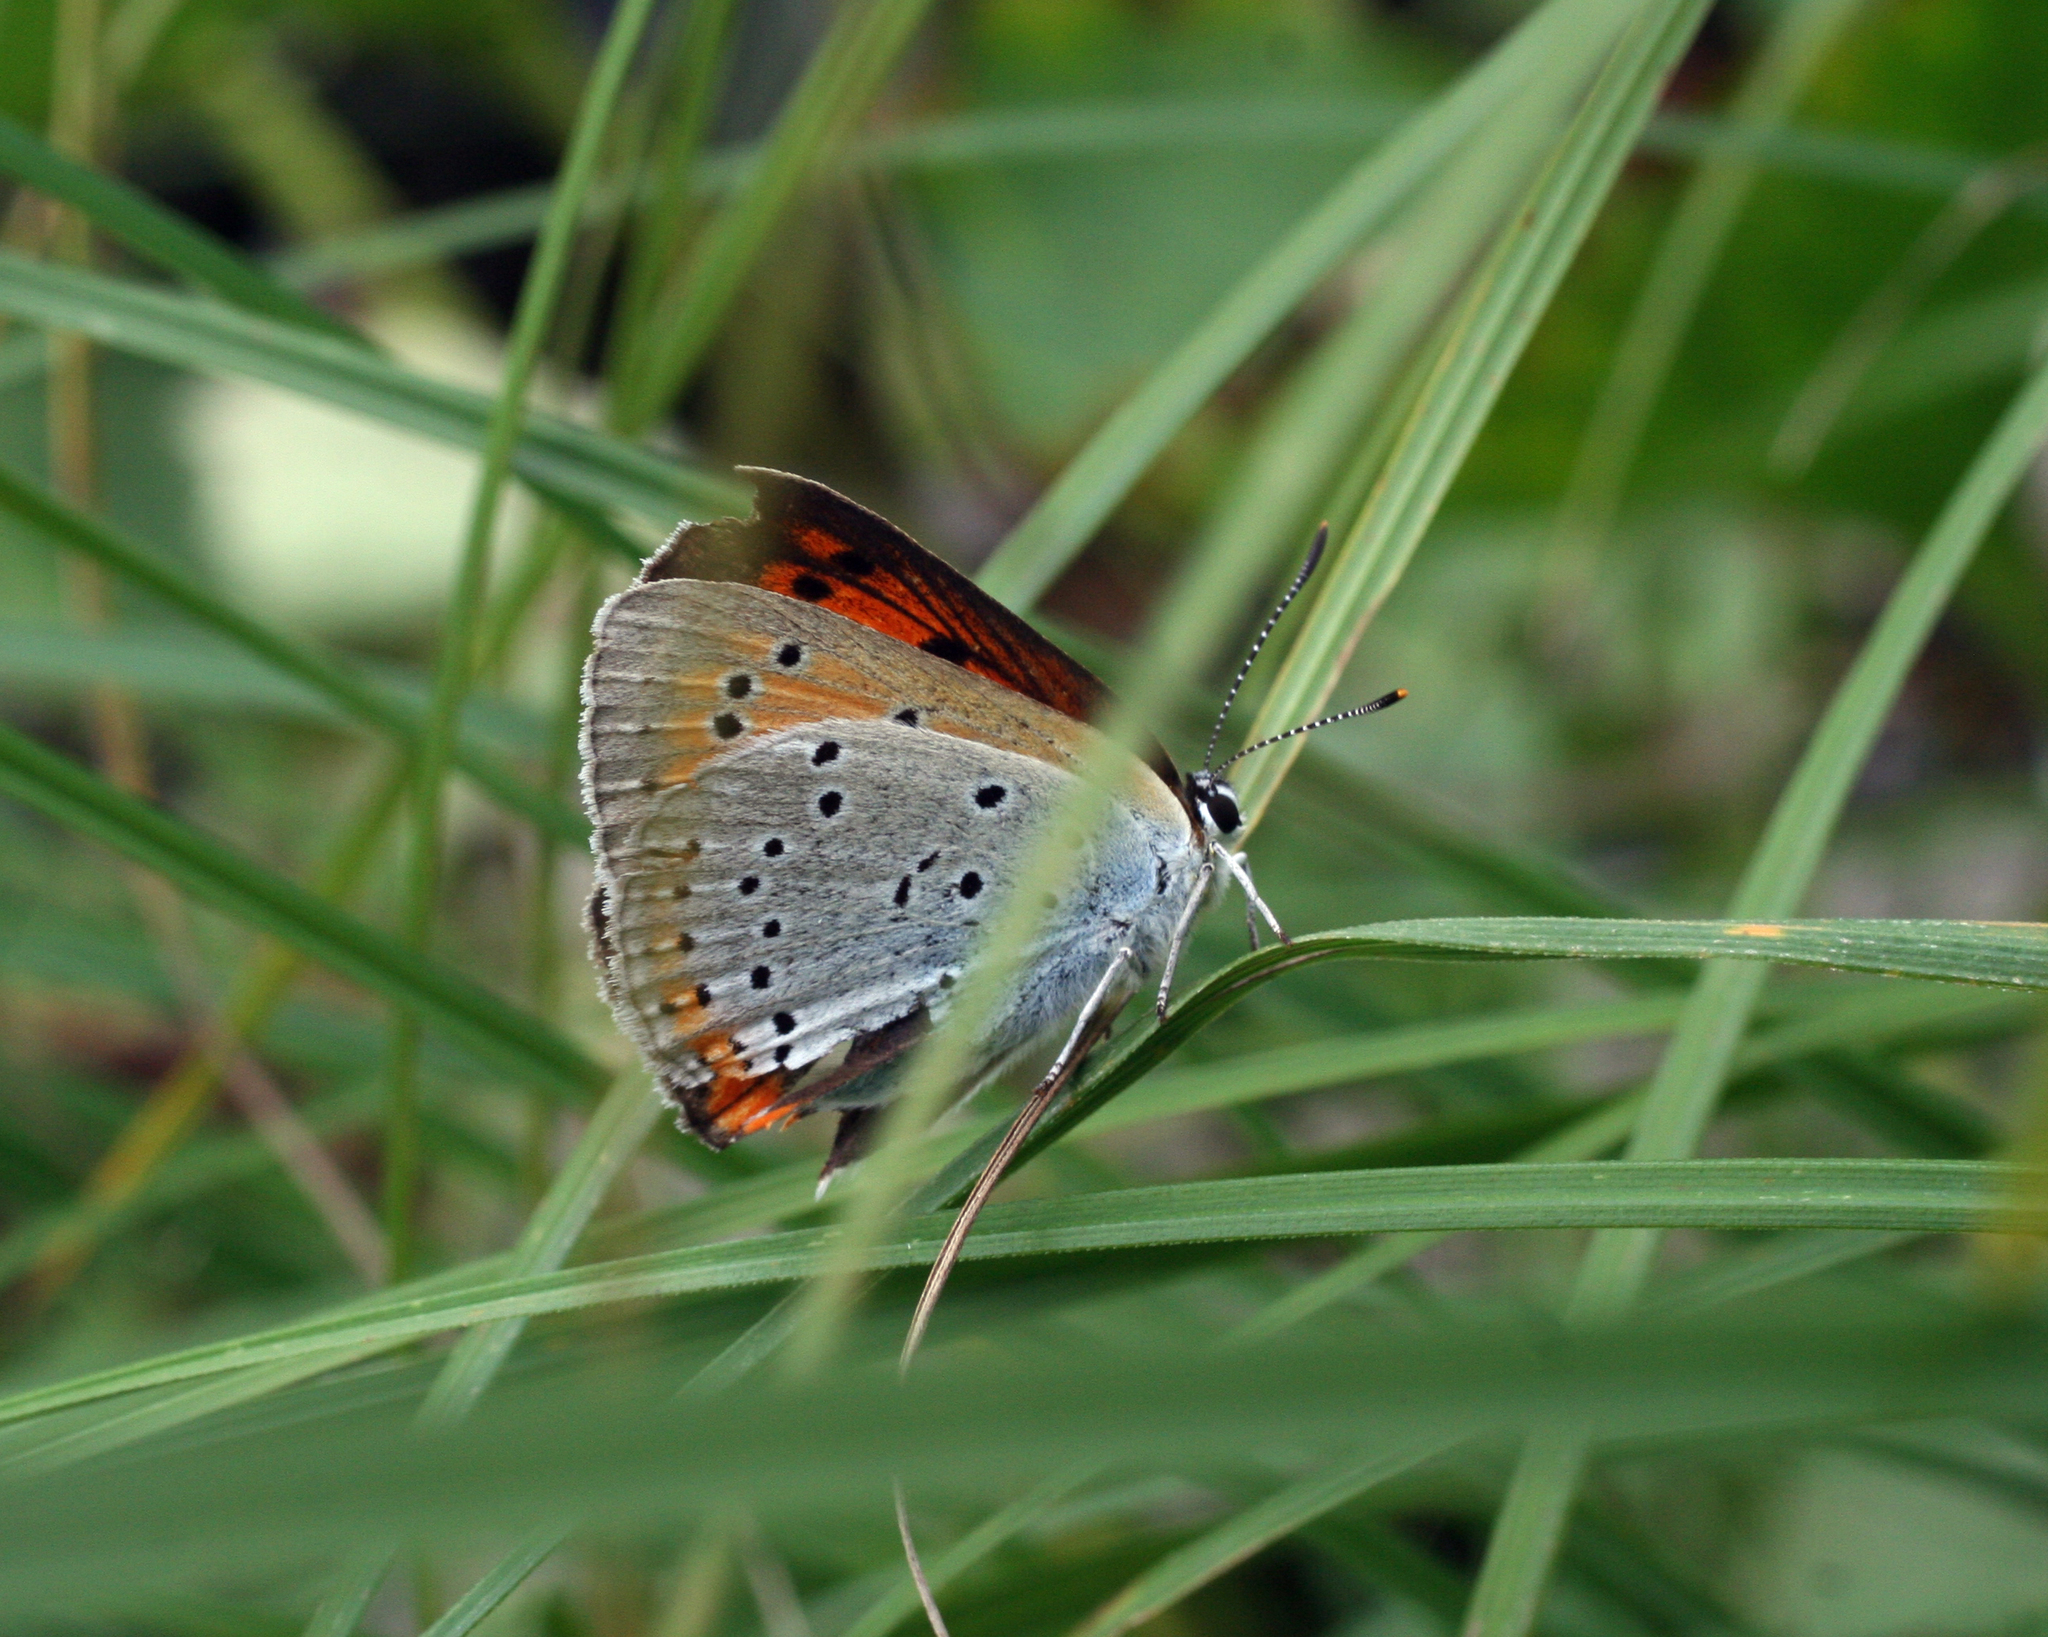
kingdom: Animalia
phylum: Arthropoda
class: Insecta
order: Lepidoptera
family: Lycaenidae
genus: Lycaena
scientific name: Lycaena dispar
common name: Large copper
